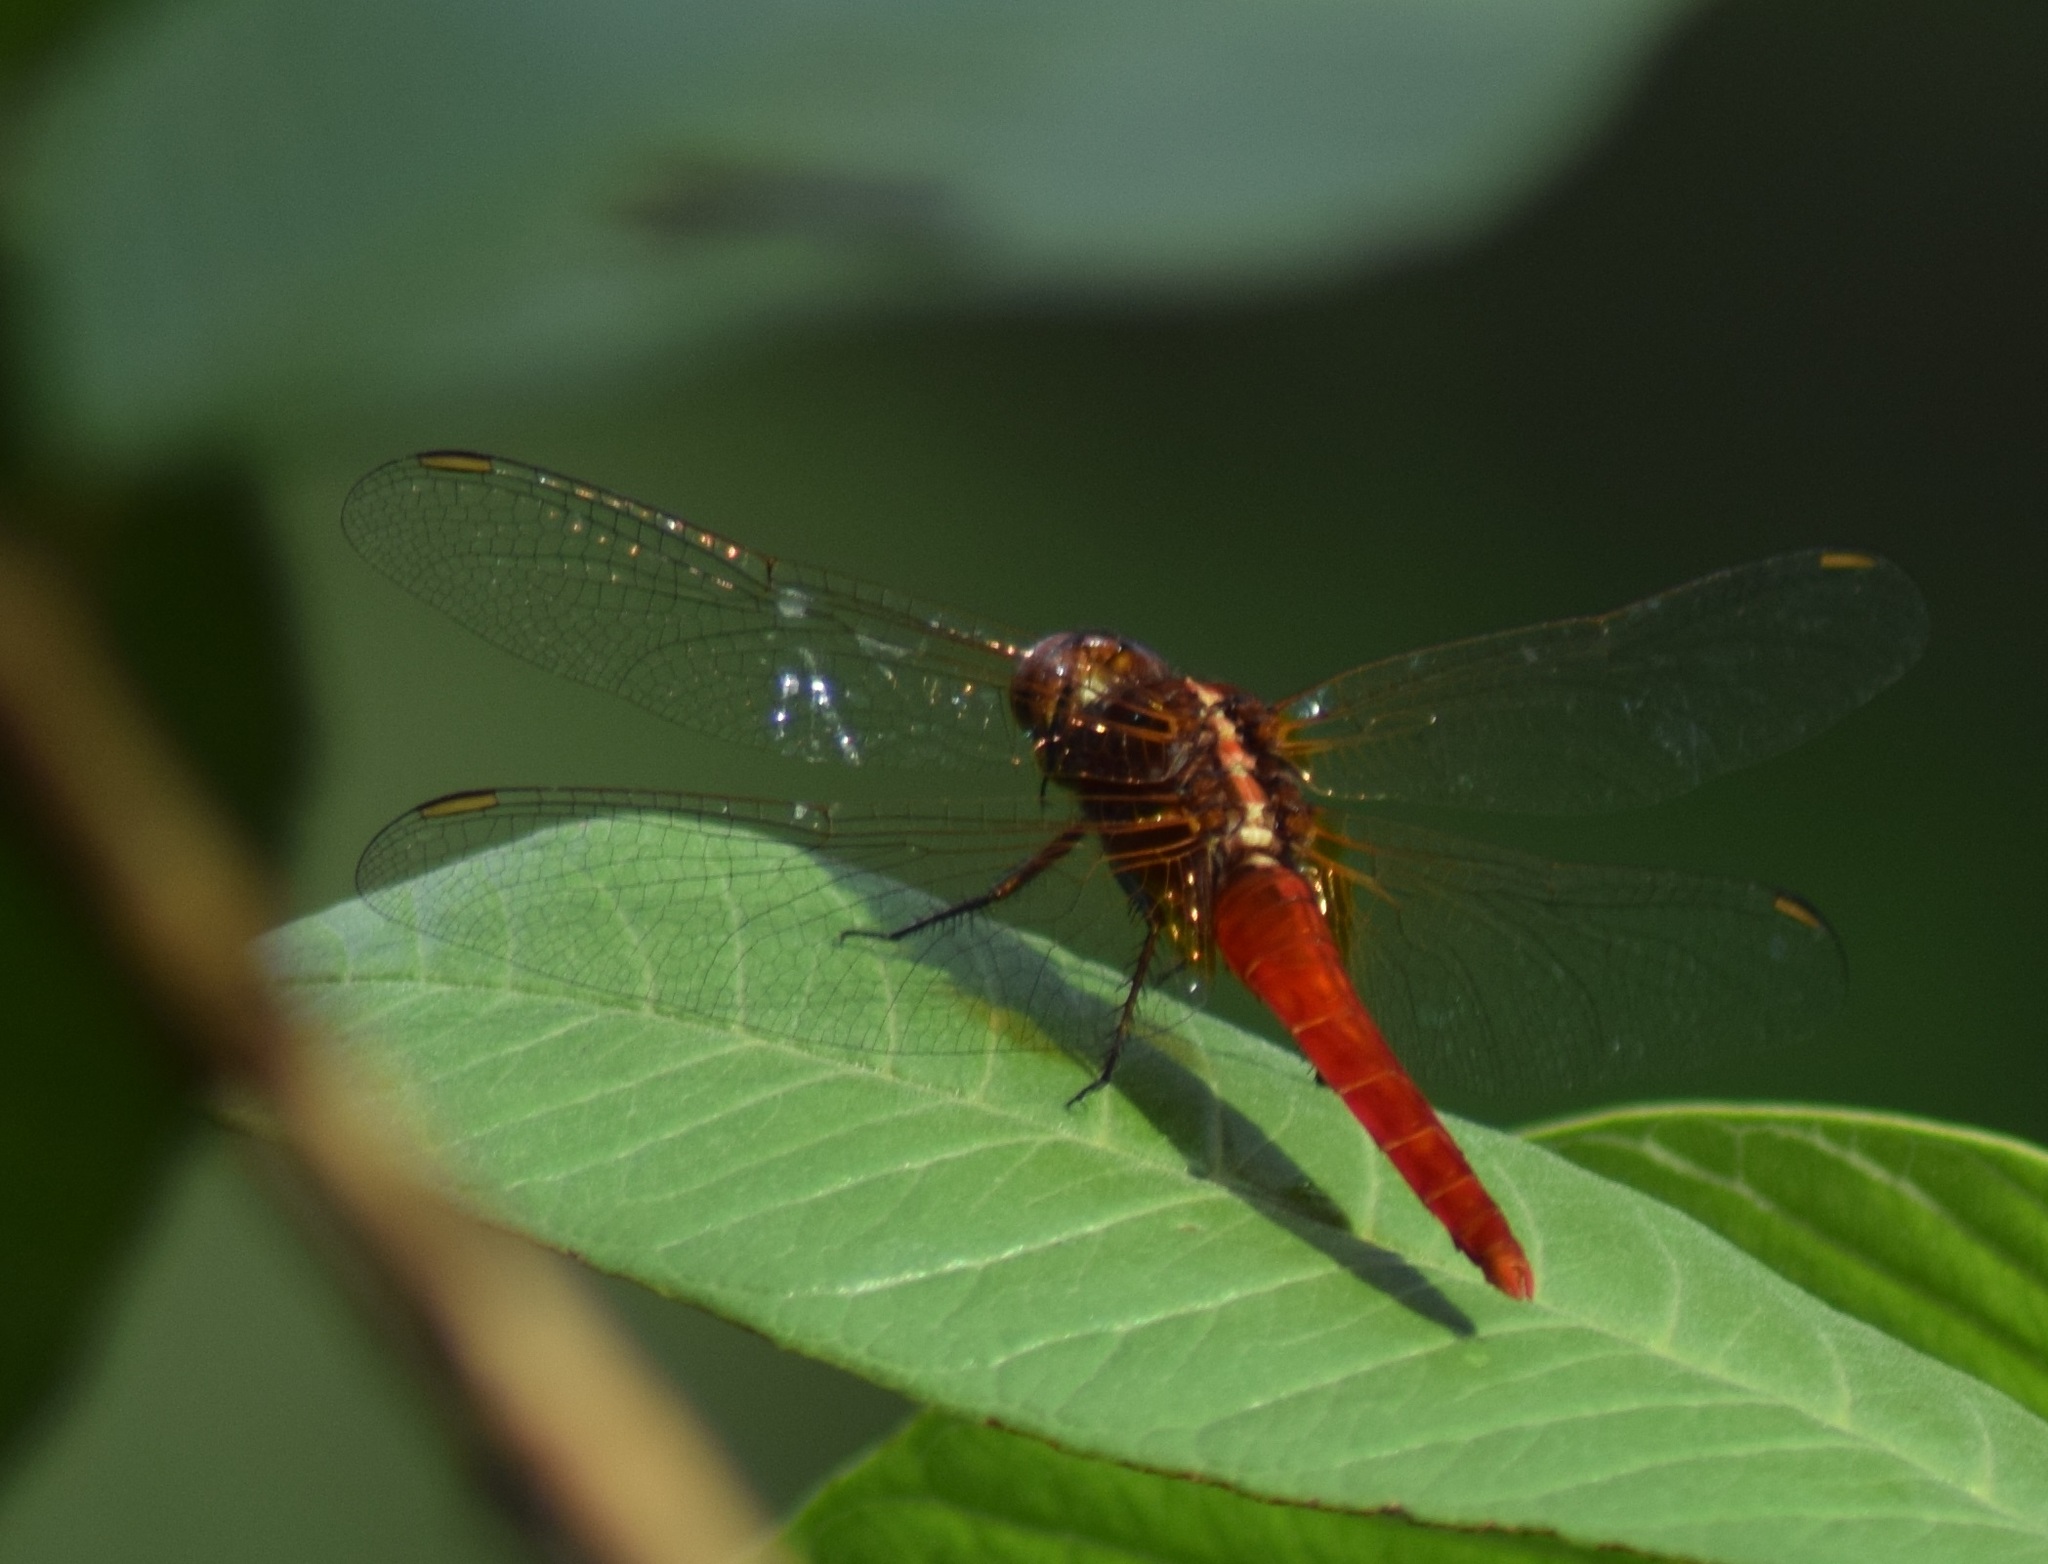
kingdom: Animalia
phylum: Arthropoda
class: Insecta
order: Odonata
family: Libellulidae
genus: Rhodothemis
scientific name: Rhodothemis rufa
